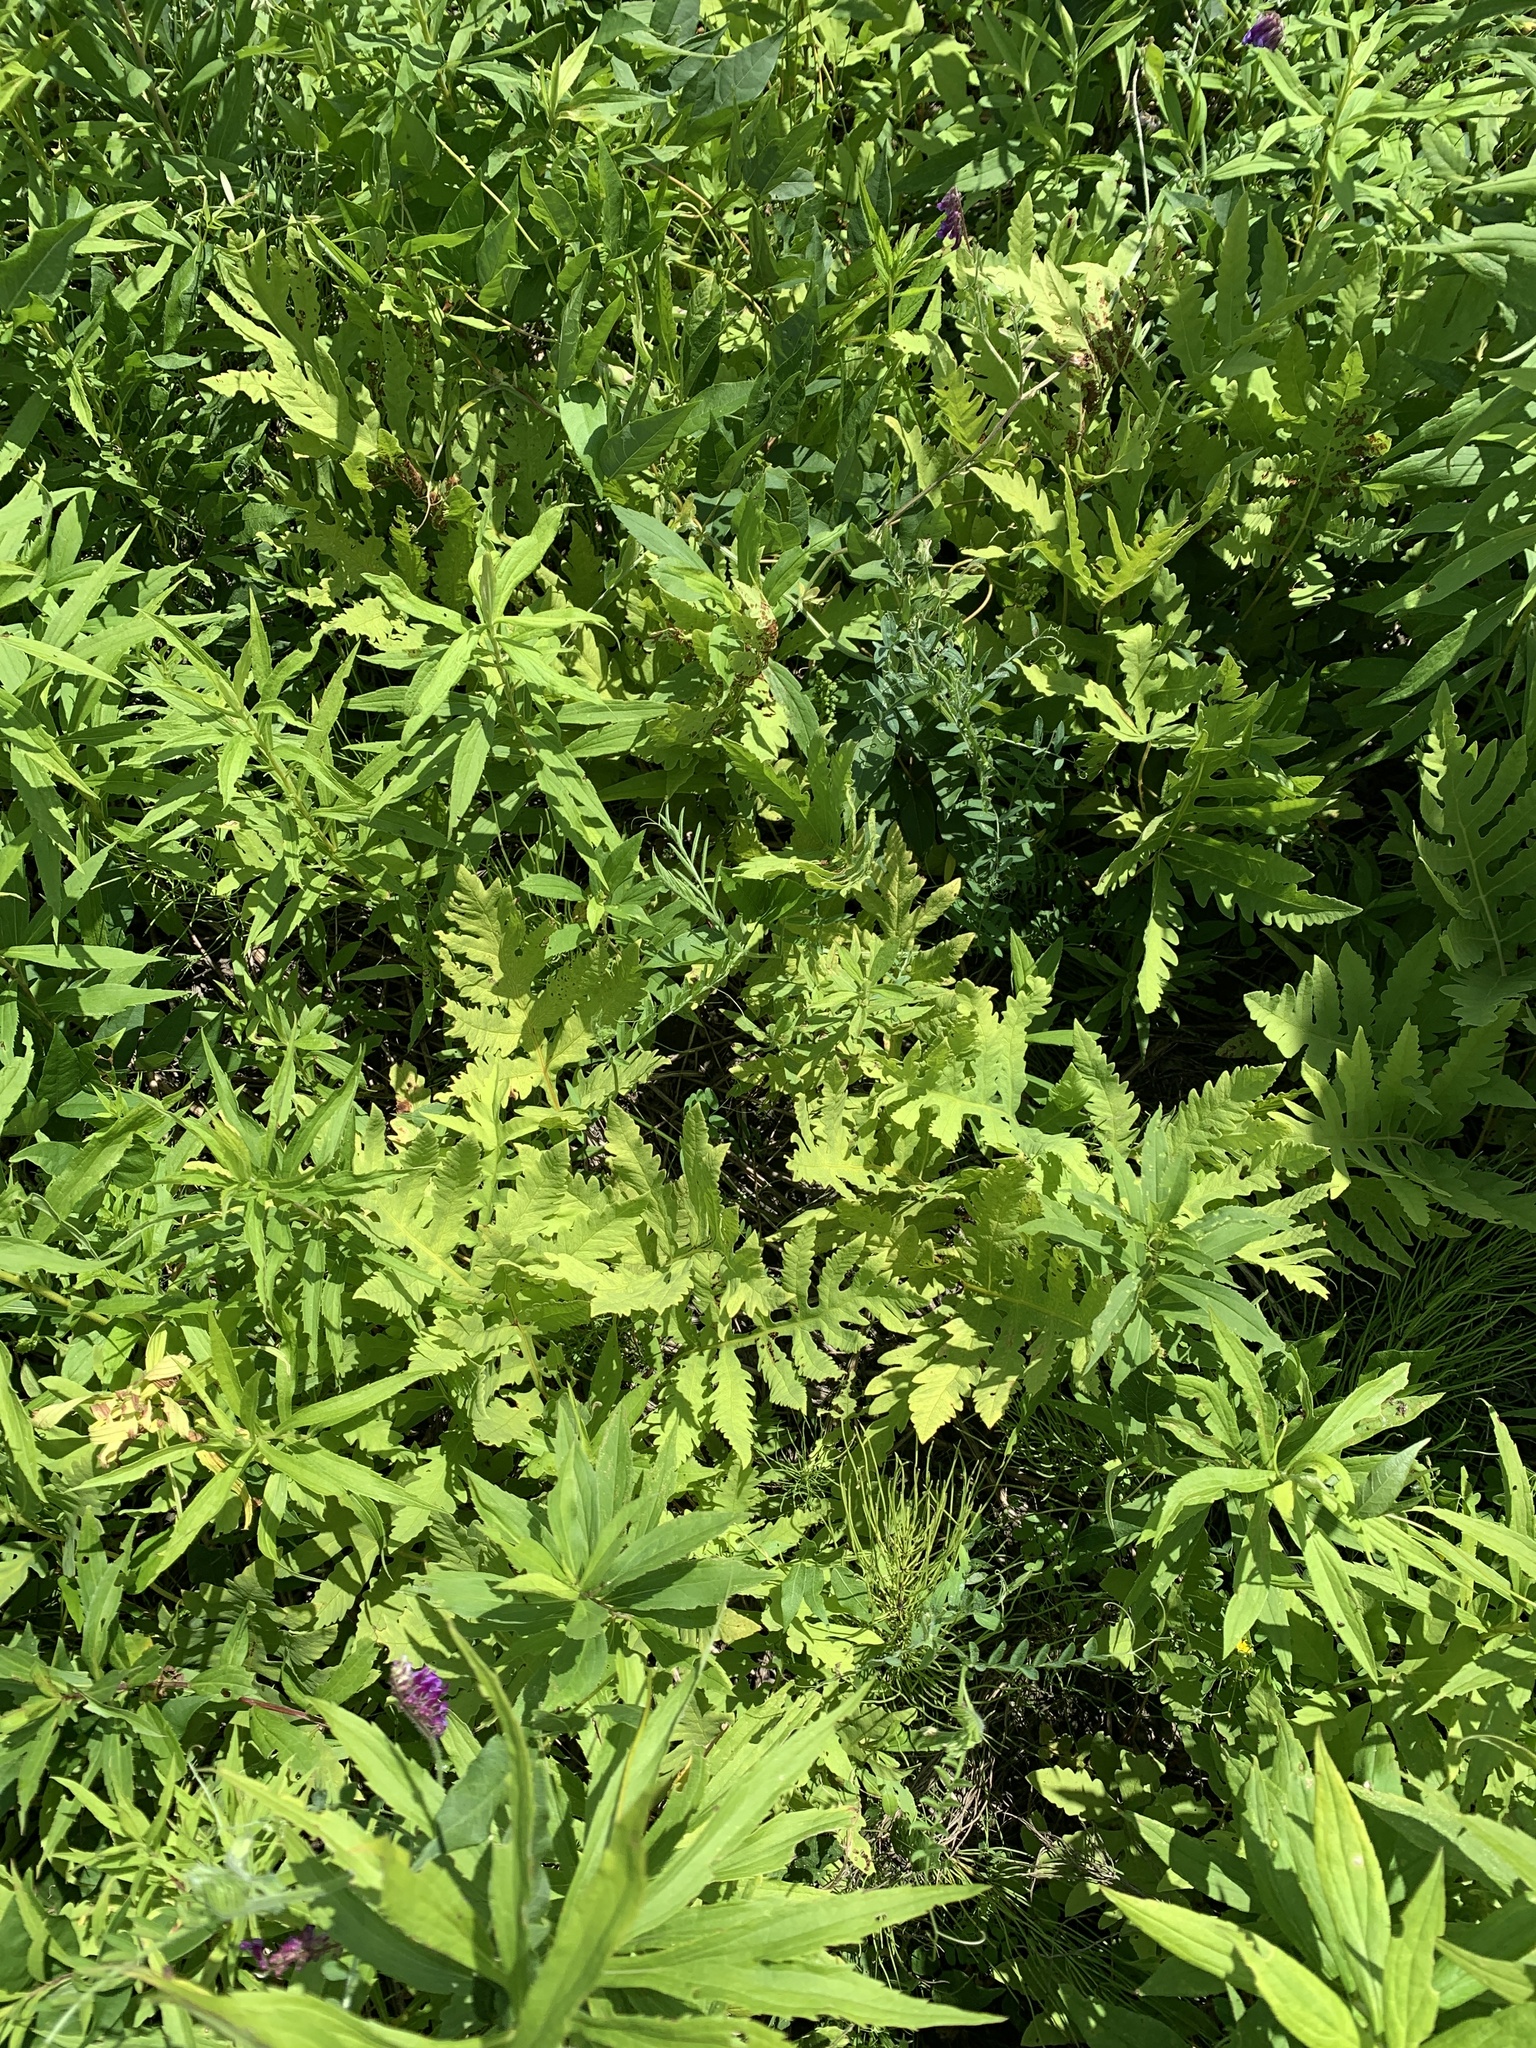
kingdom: Plantae
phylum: Tracheophyta
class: Polypodiopsida
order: Polypodiales
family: Onocleaceae
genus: Onoclea
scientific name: Onoclea sensibilis
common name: Sensitive fern
